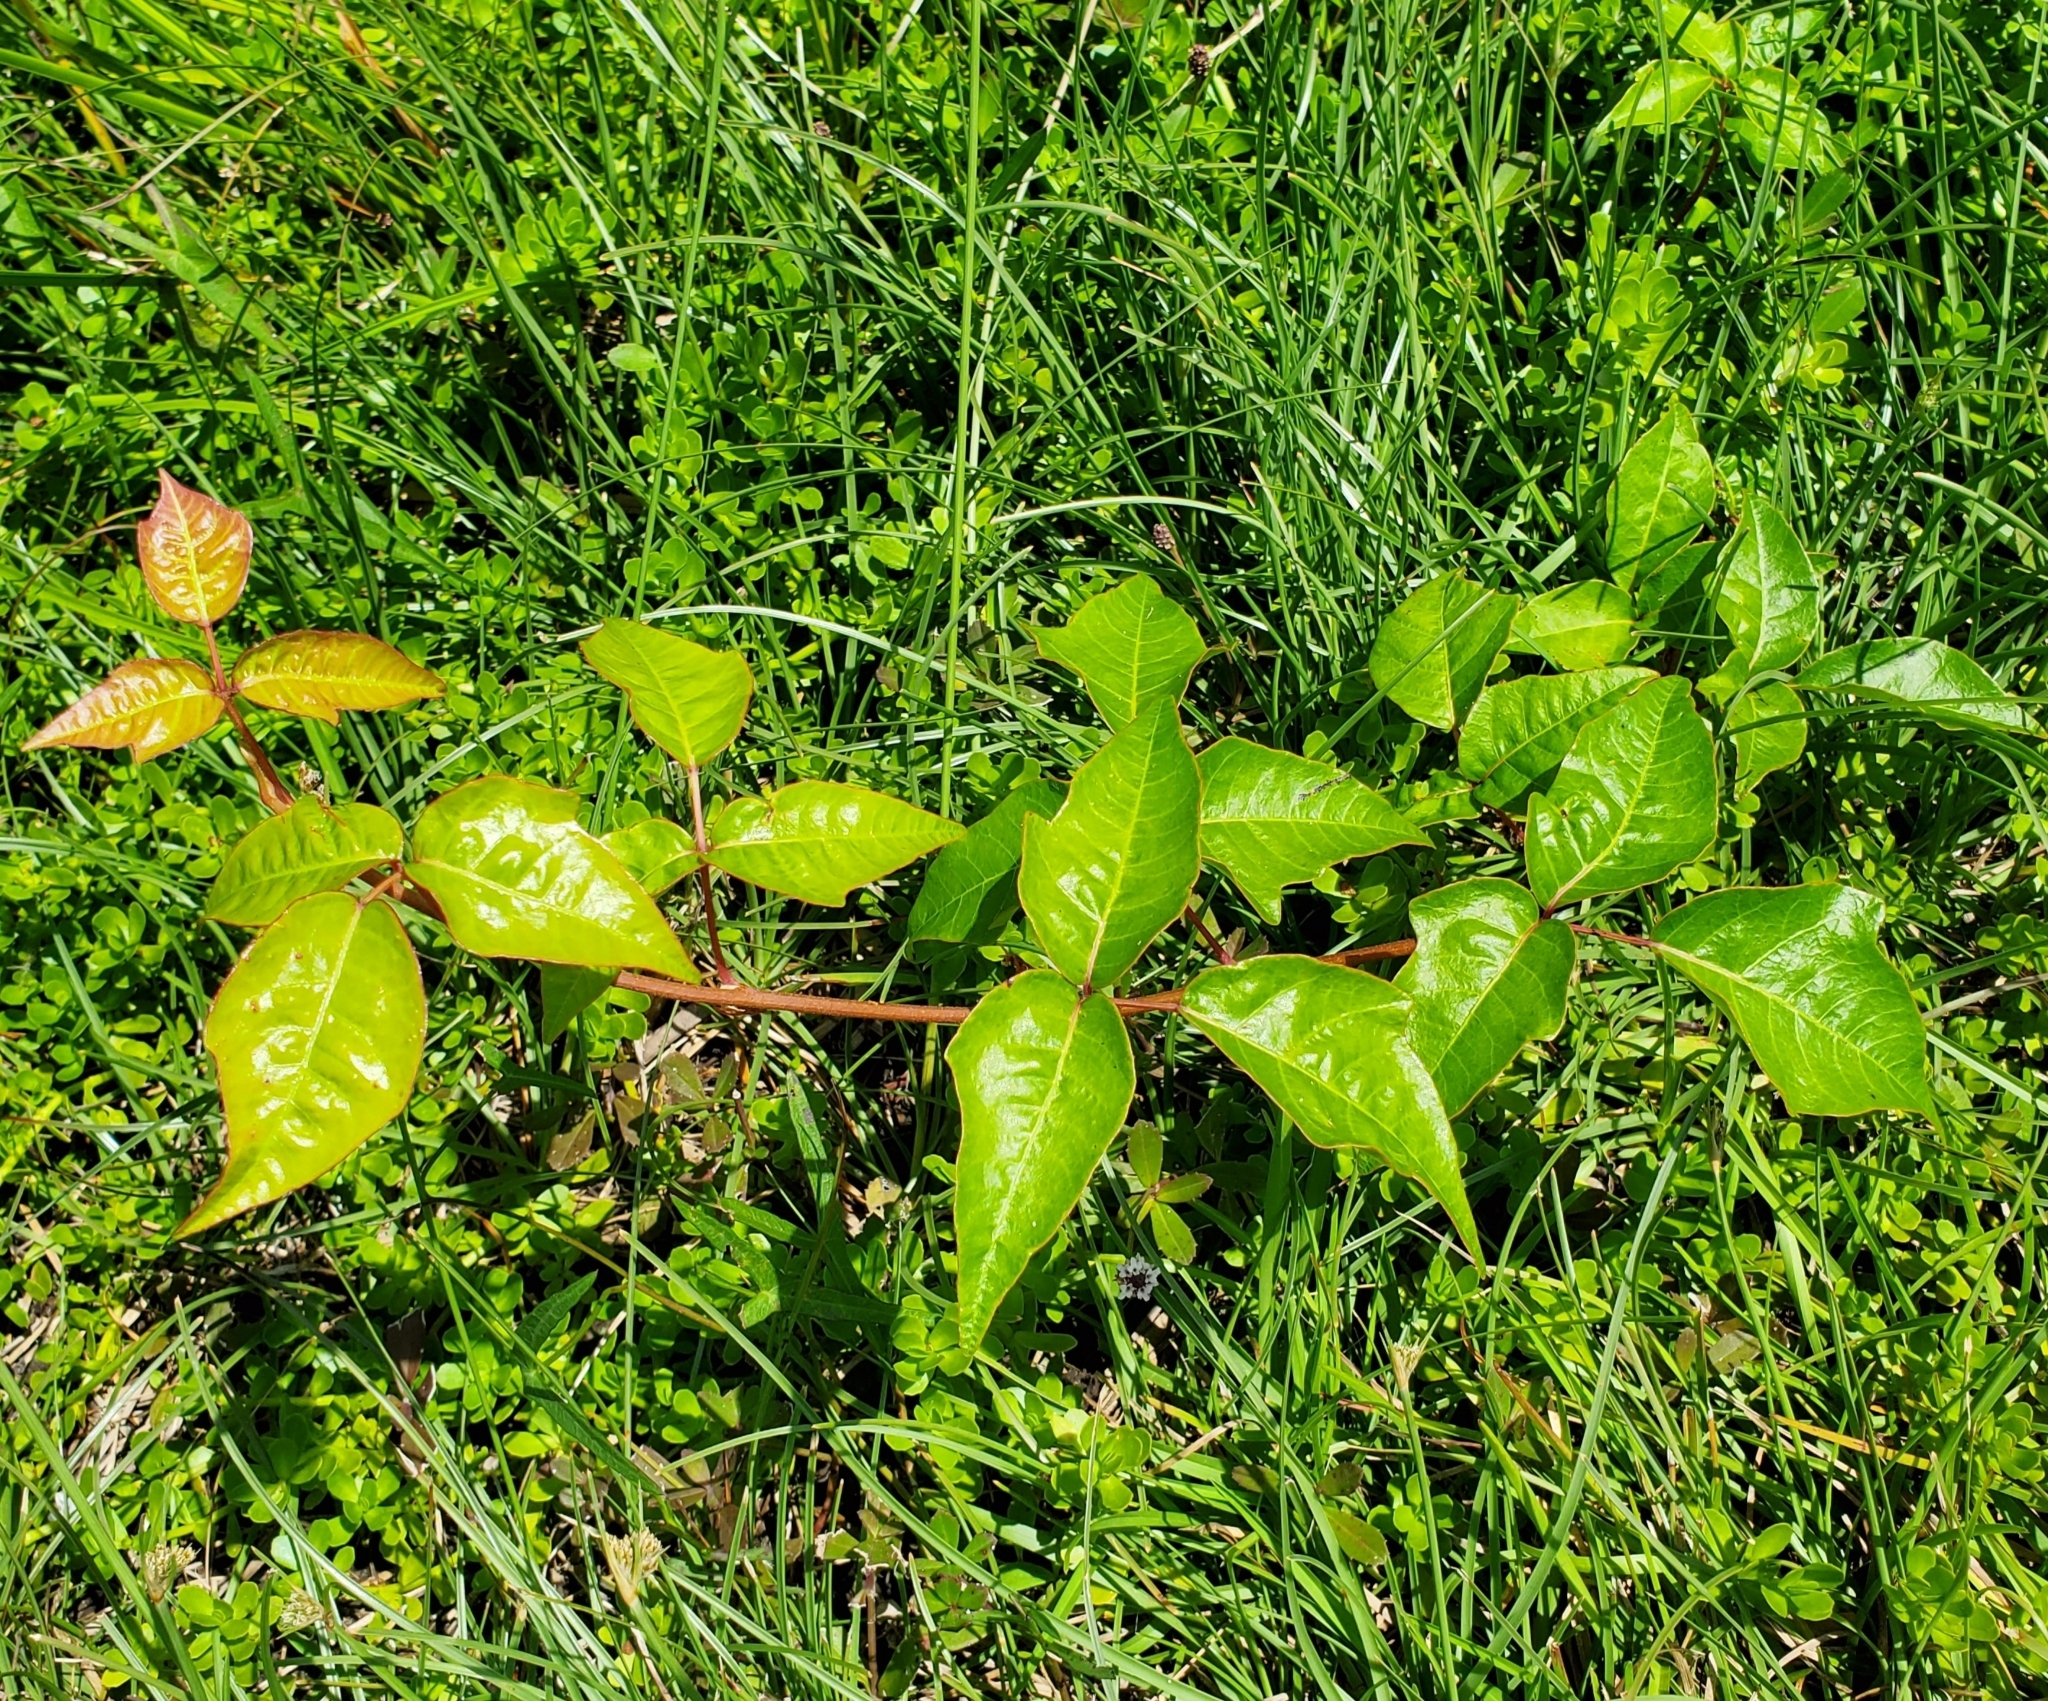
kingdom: Plantae
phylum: Tracheophyta
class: Magnoliopsida
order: Sapindales
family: Anacardiaceae
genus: Toxicodendron
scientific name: Toxicodendron radicans
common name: Poison ivy
